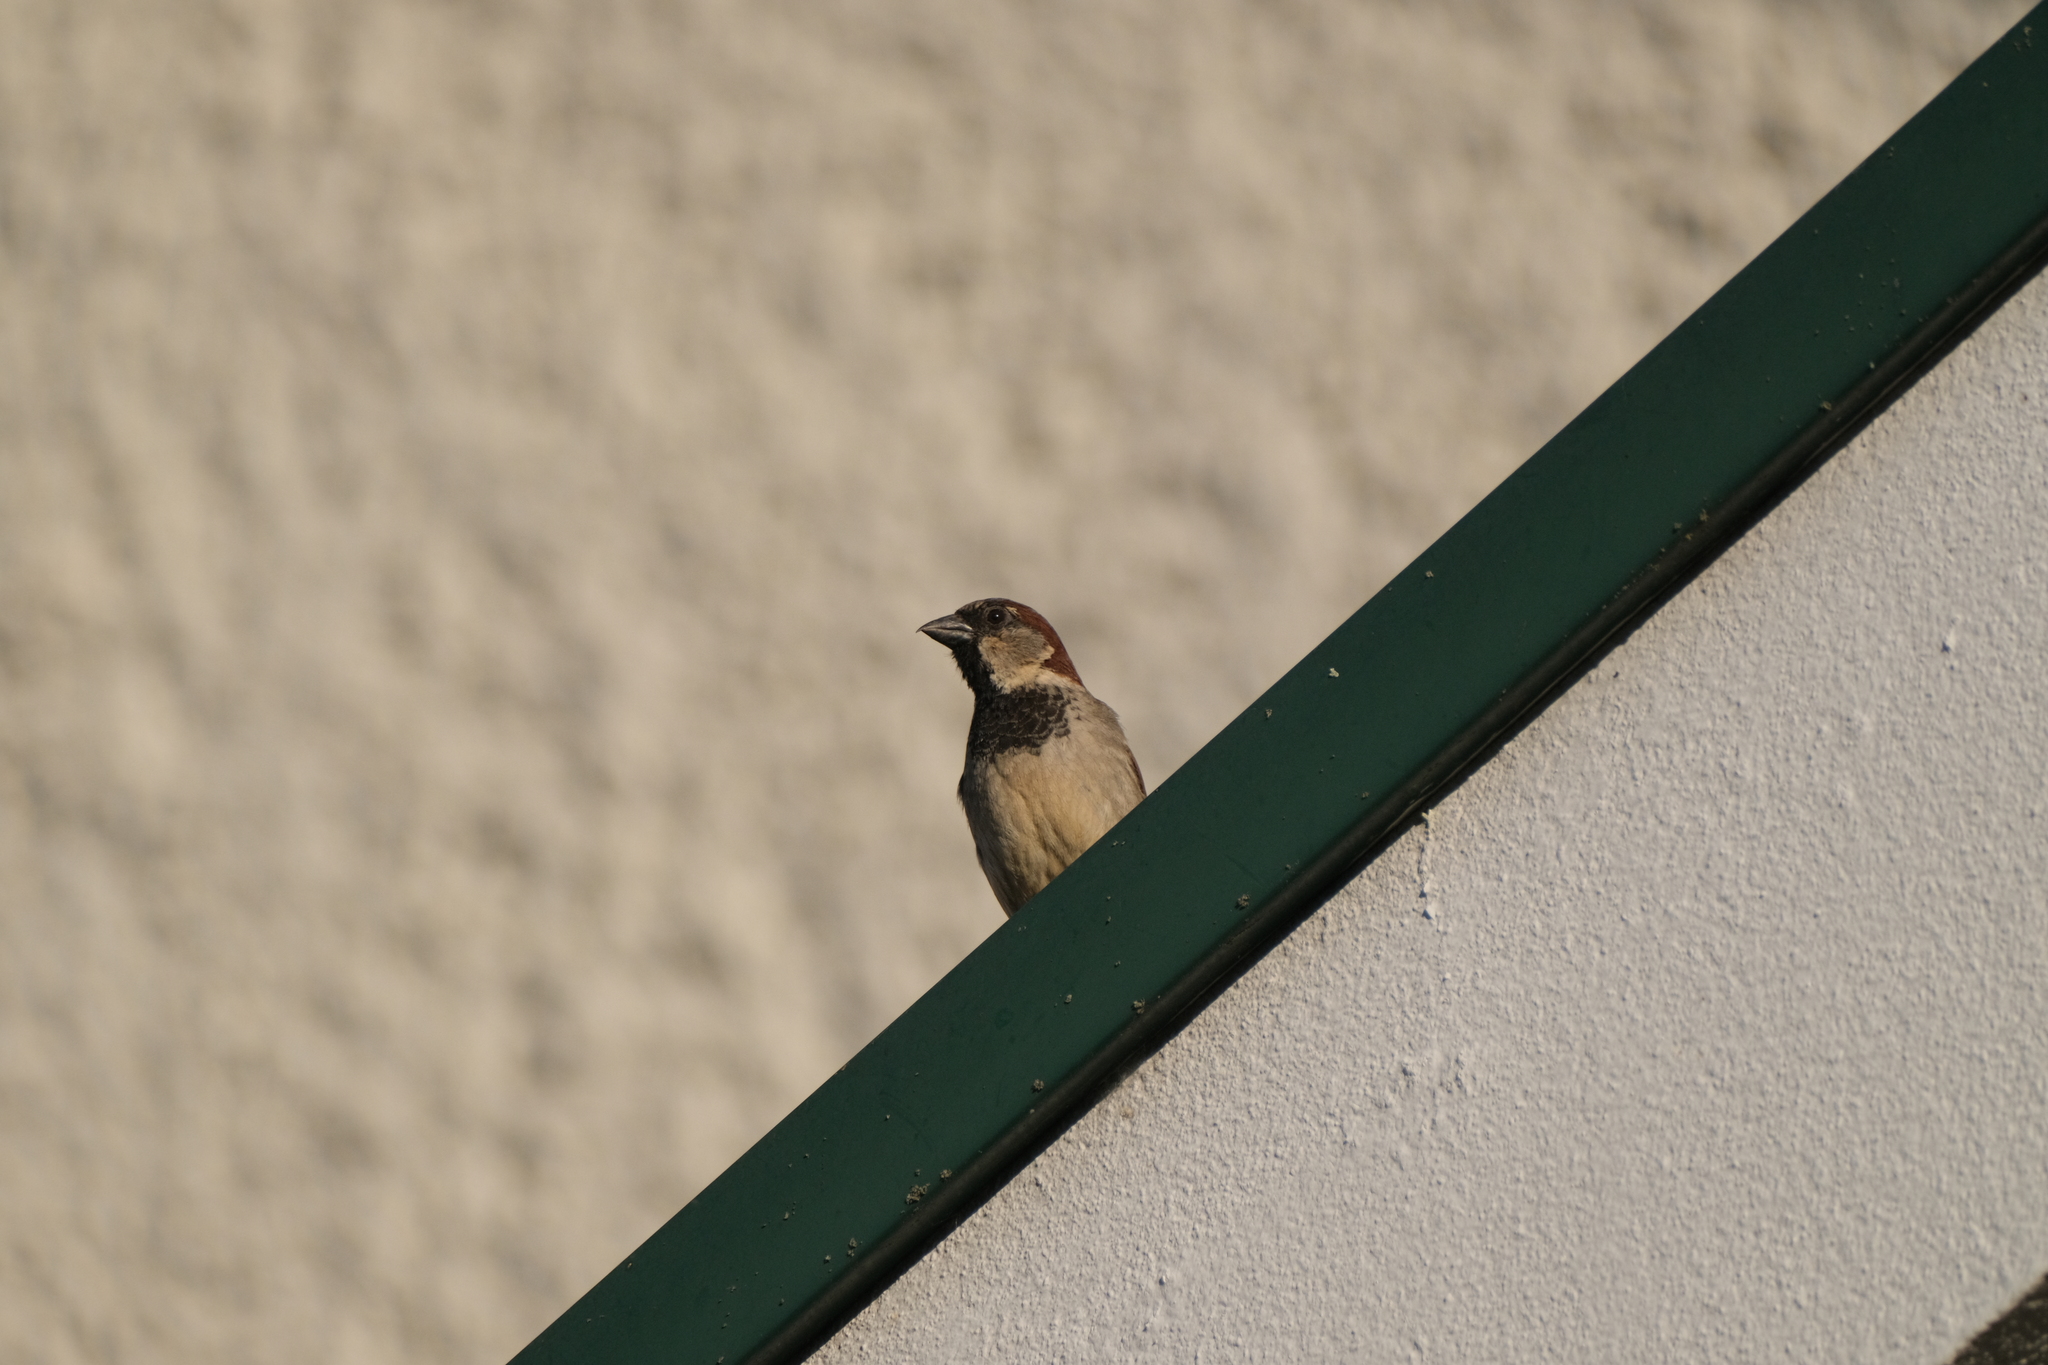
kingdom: Animalia
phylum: Chordata
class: Aves
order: Passeriformes
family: Passeridae
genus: Passer
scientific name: Passer domesticus
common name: House sparrow
